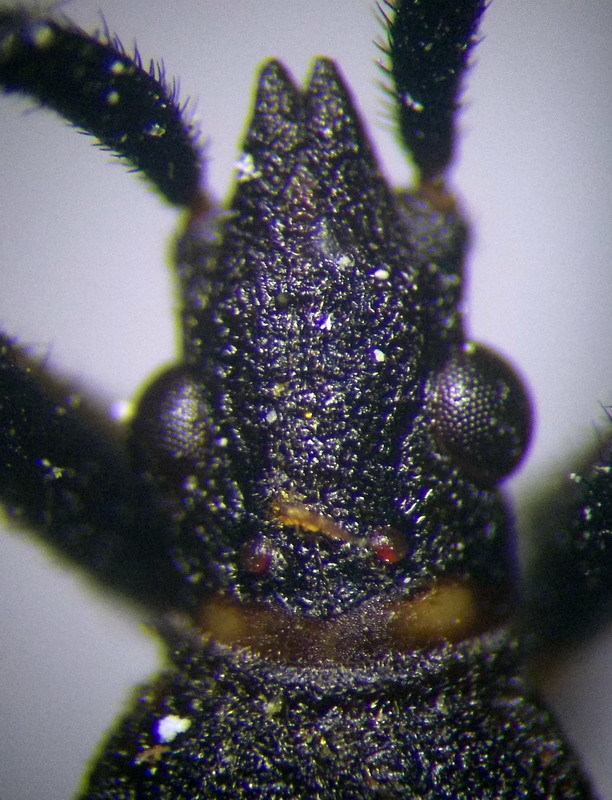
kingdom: Animalia
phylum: Arthropoda
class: Insecta
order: Hemiptera
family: Stenocephalidae
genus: Dicranocephalus
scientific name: Dicranocephalus agilis
